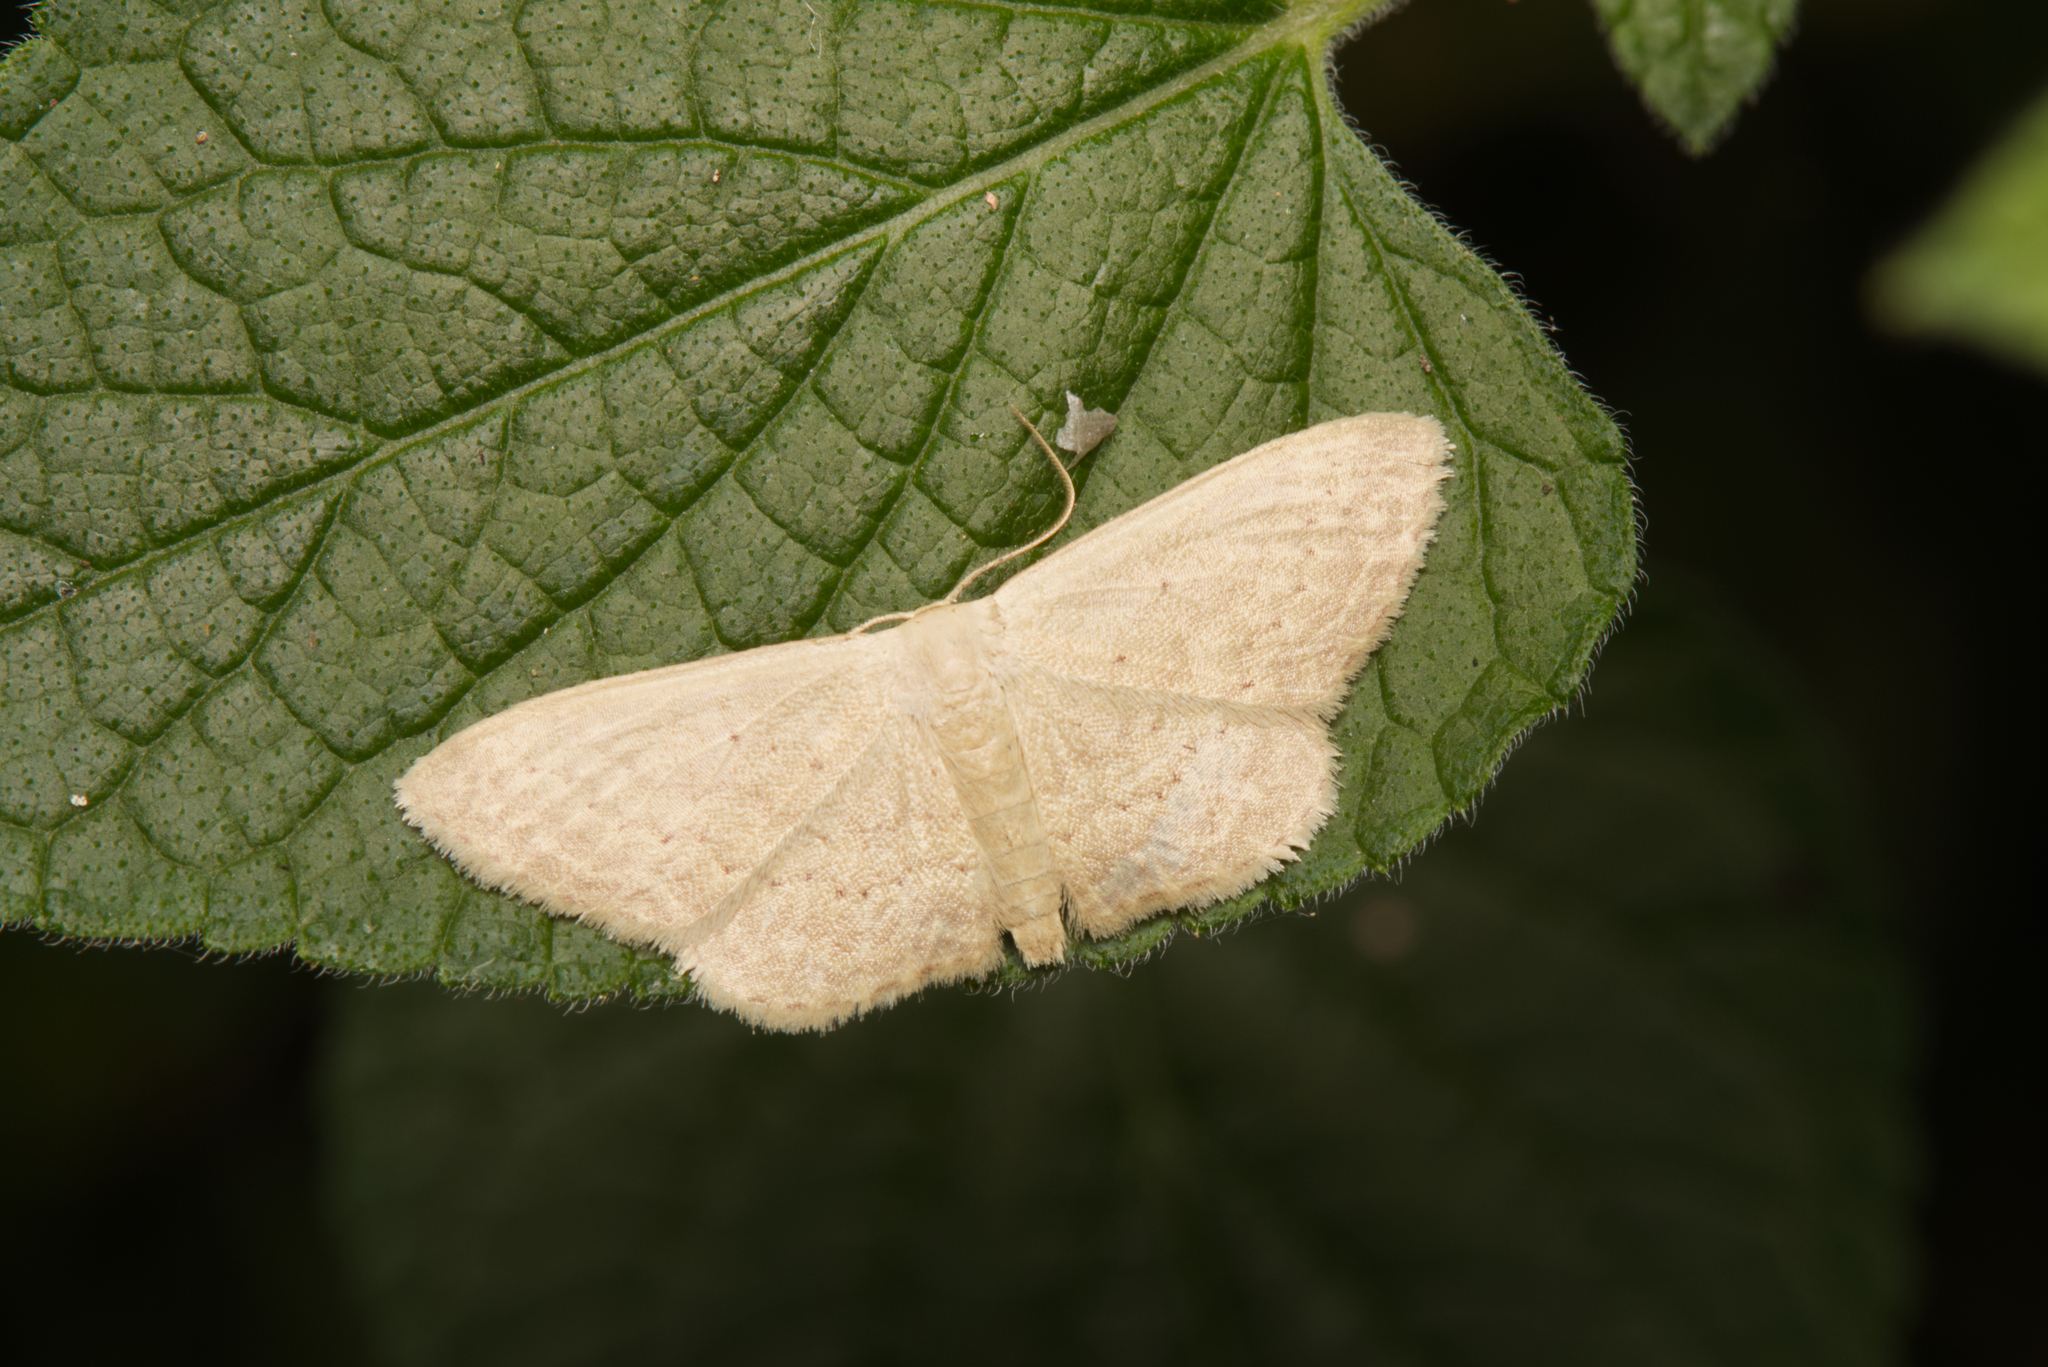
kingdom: Animalia
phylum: Arthropoda
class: Insecta
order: Lepidoptera
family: Geometridae
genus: Idaea
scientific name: Idaea dolichopis
